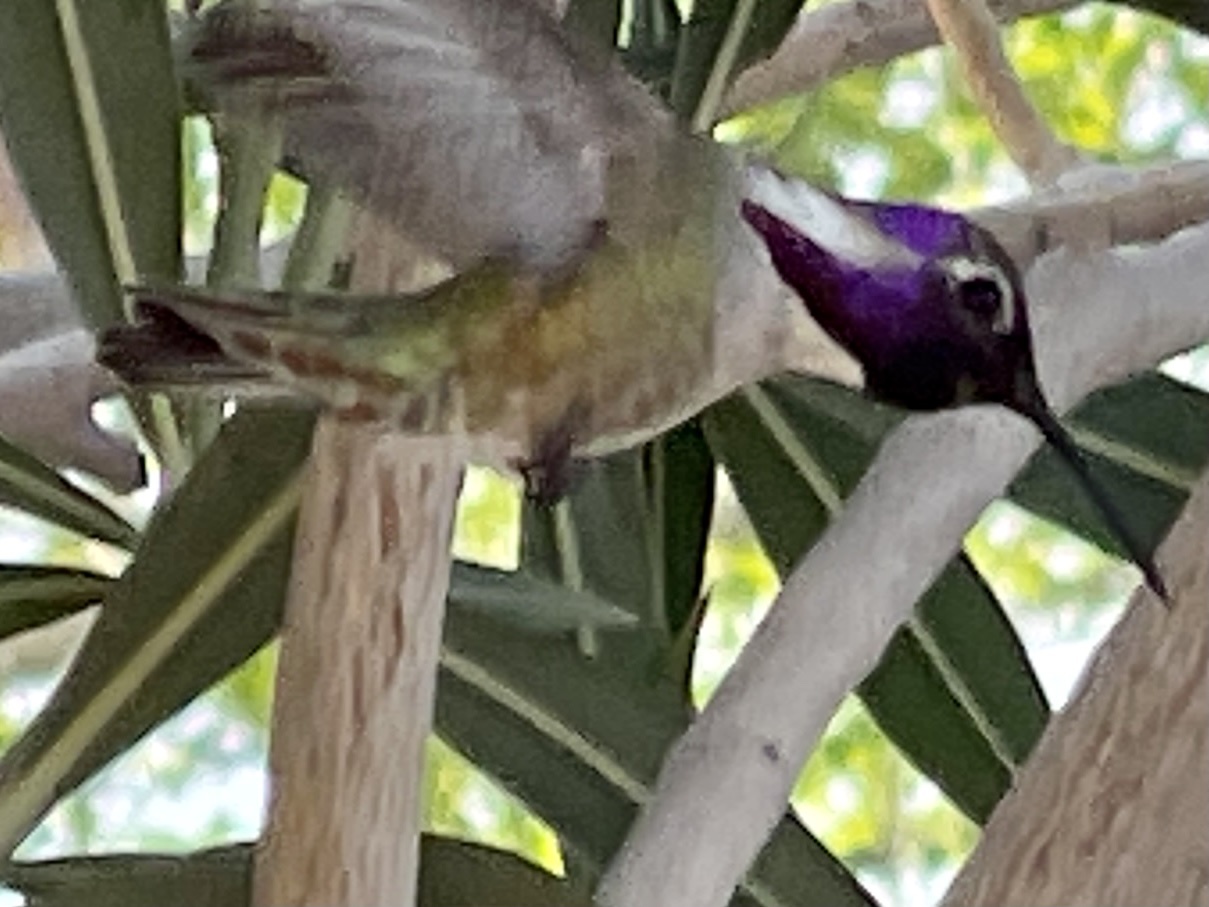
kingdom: Animalia
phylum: Chordata
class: Aves
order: Apodiformes
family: Trochilidae
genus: Calypte
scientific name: Calypte costae
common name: Costa's hummingbird
